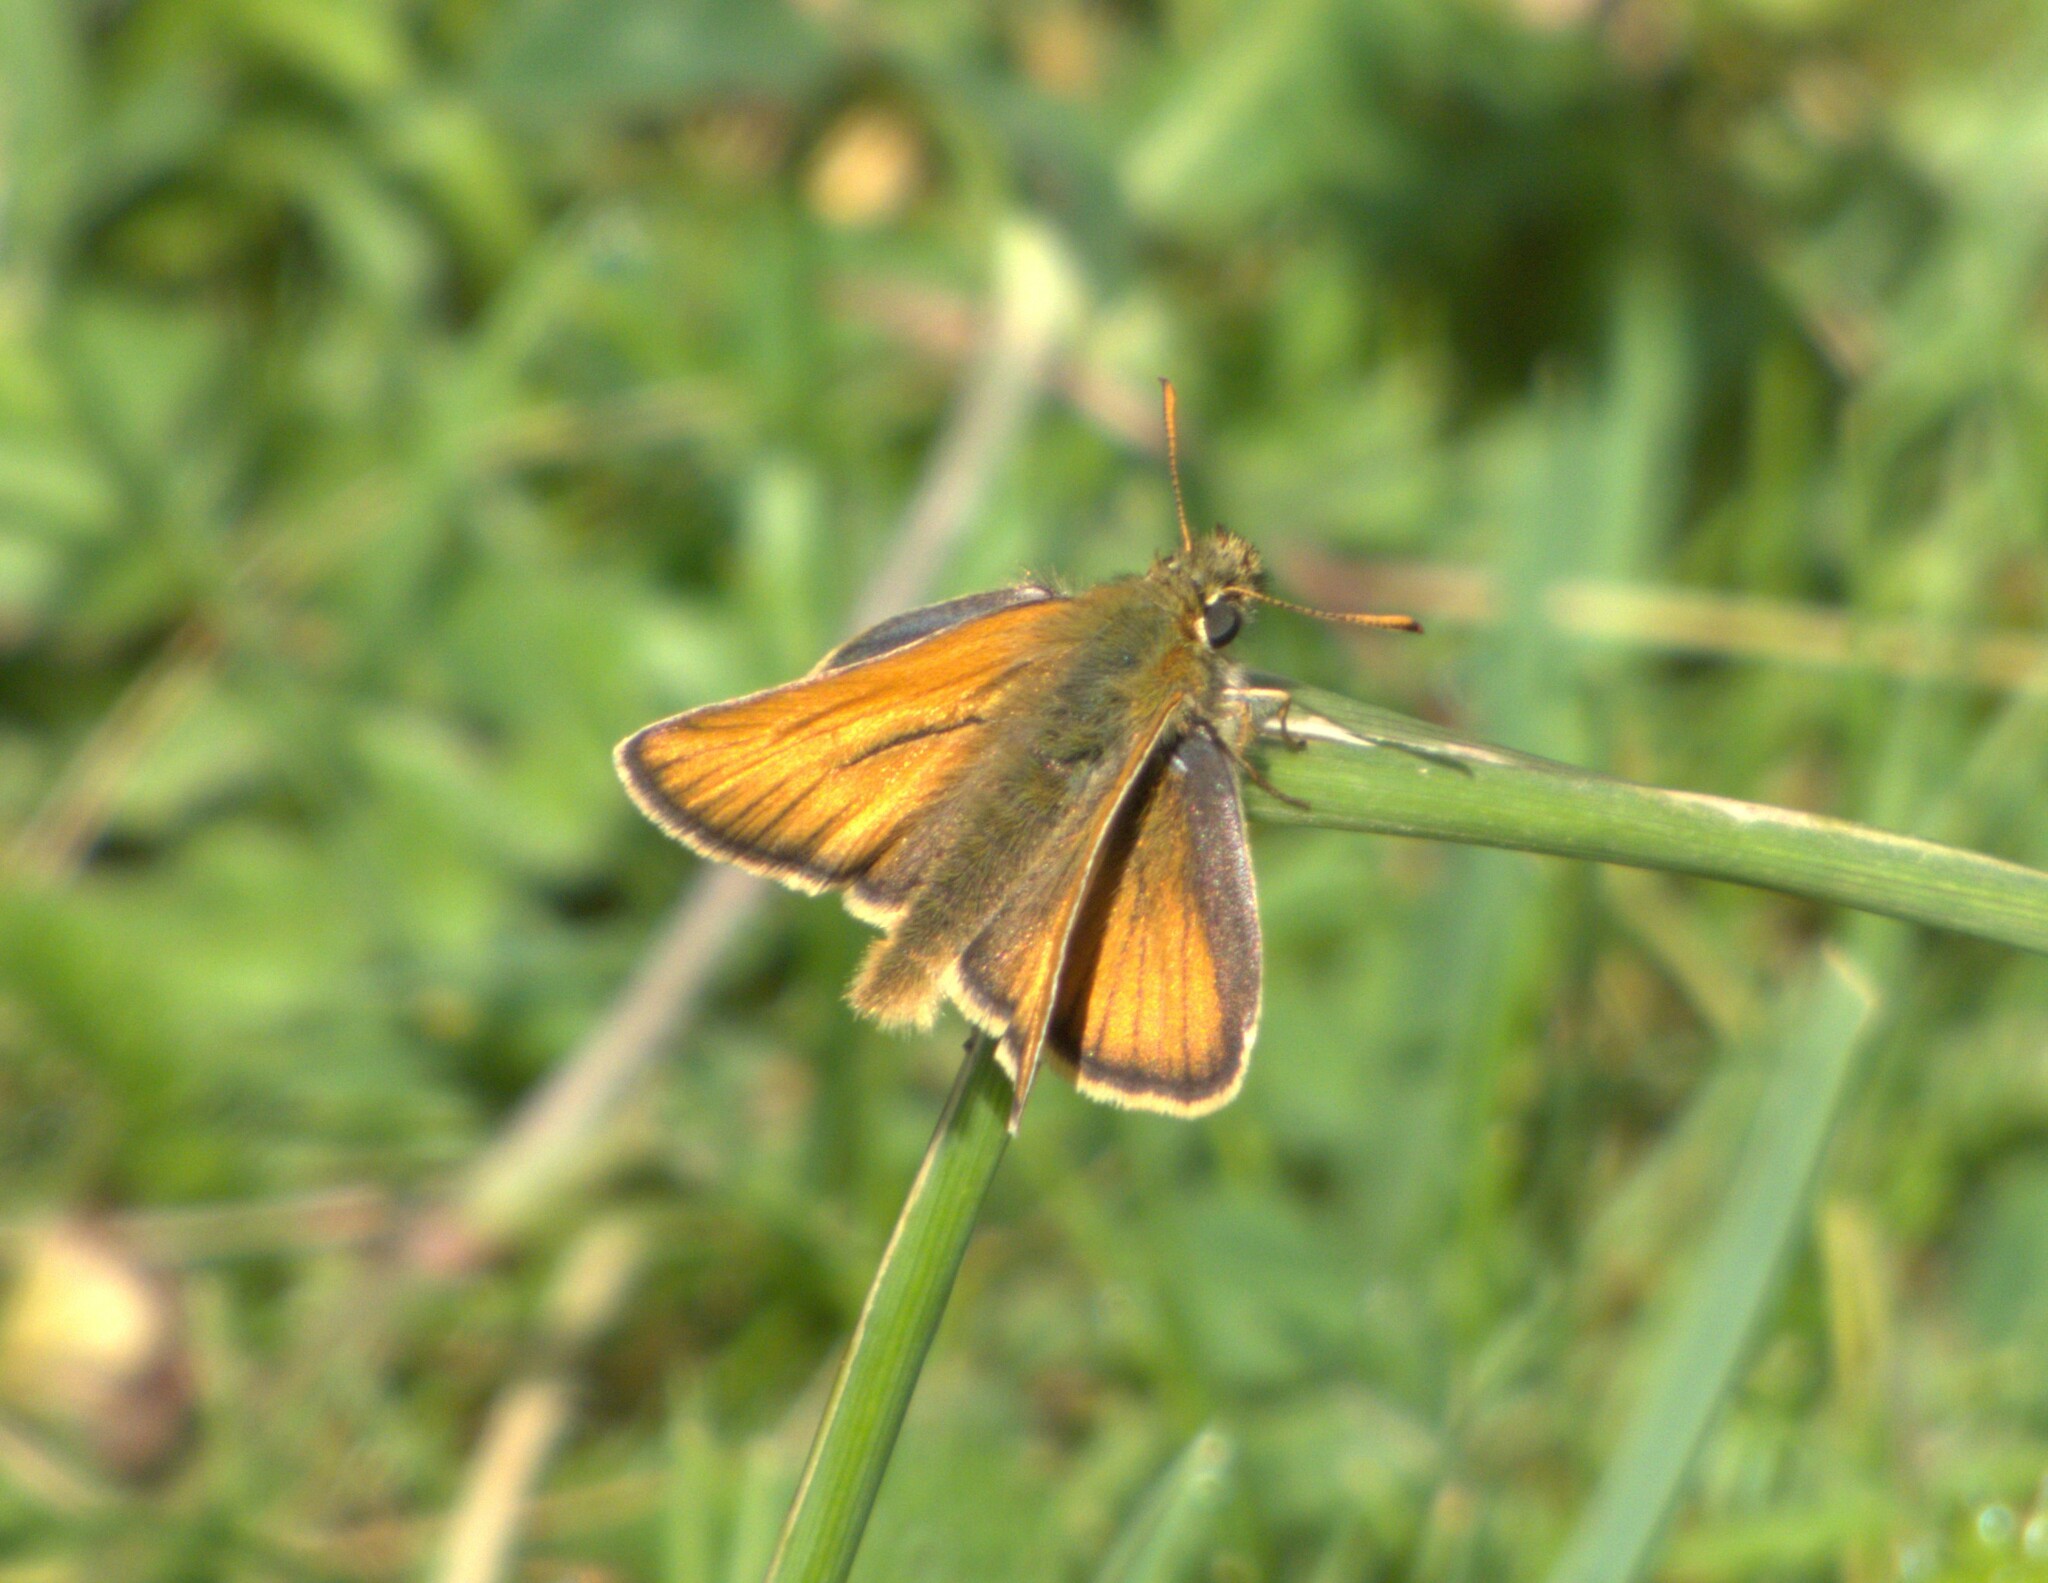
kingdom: Animalia
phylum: Arthropoda
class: Insecta
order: Lepidoptera
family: Hesperiidae
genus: Thymelicus
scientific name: Thymelicus sylvestris
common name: Small skipper
